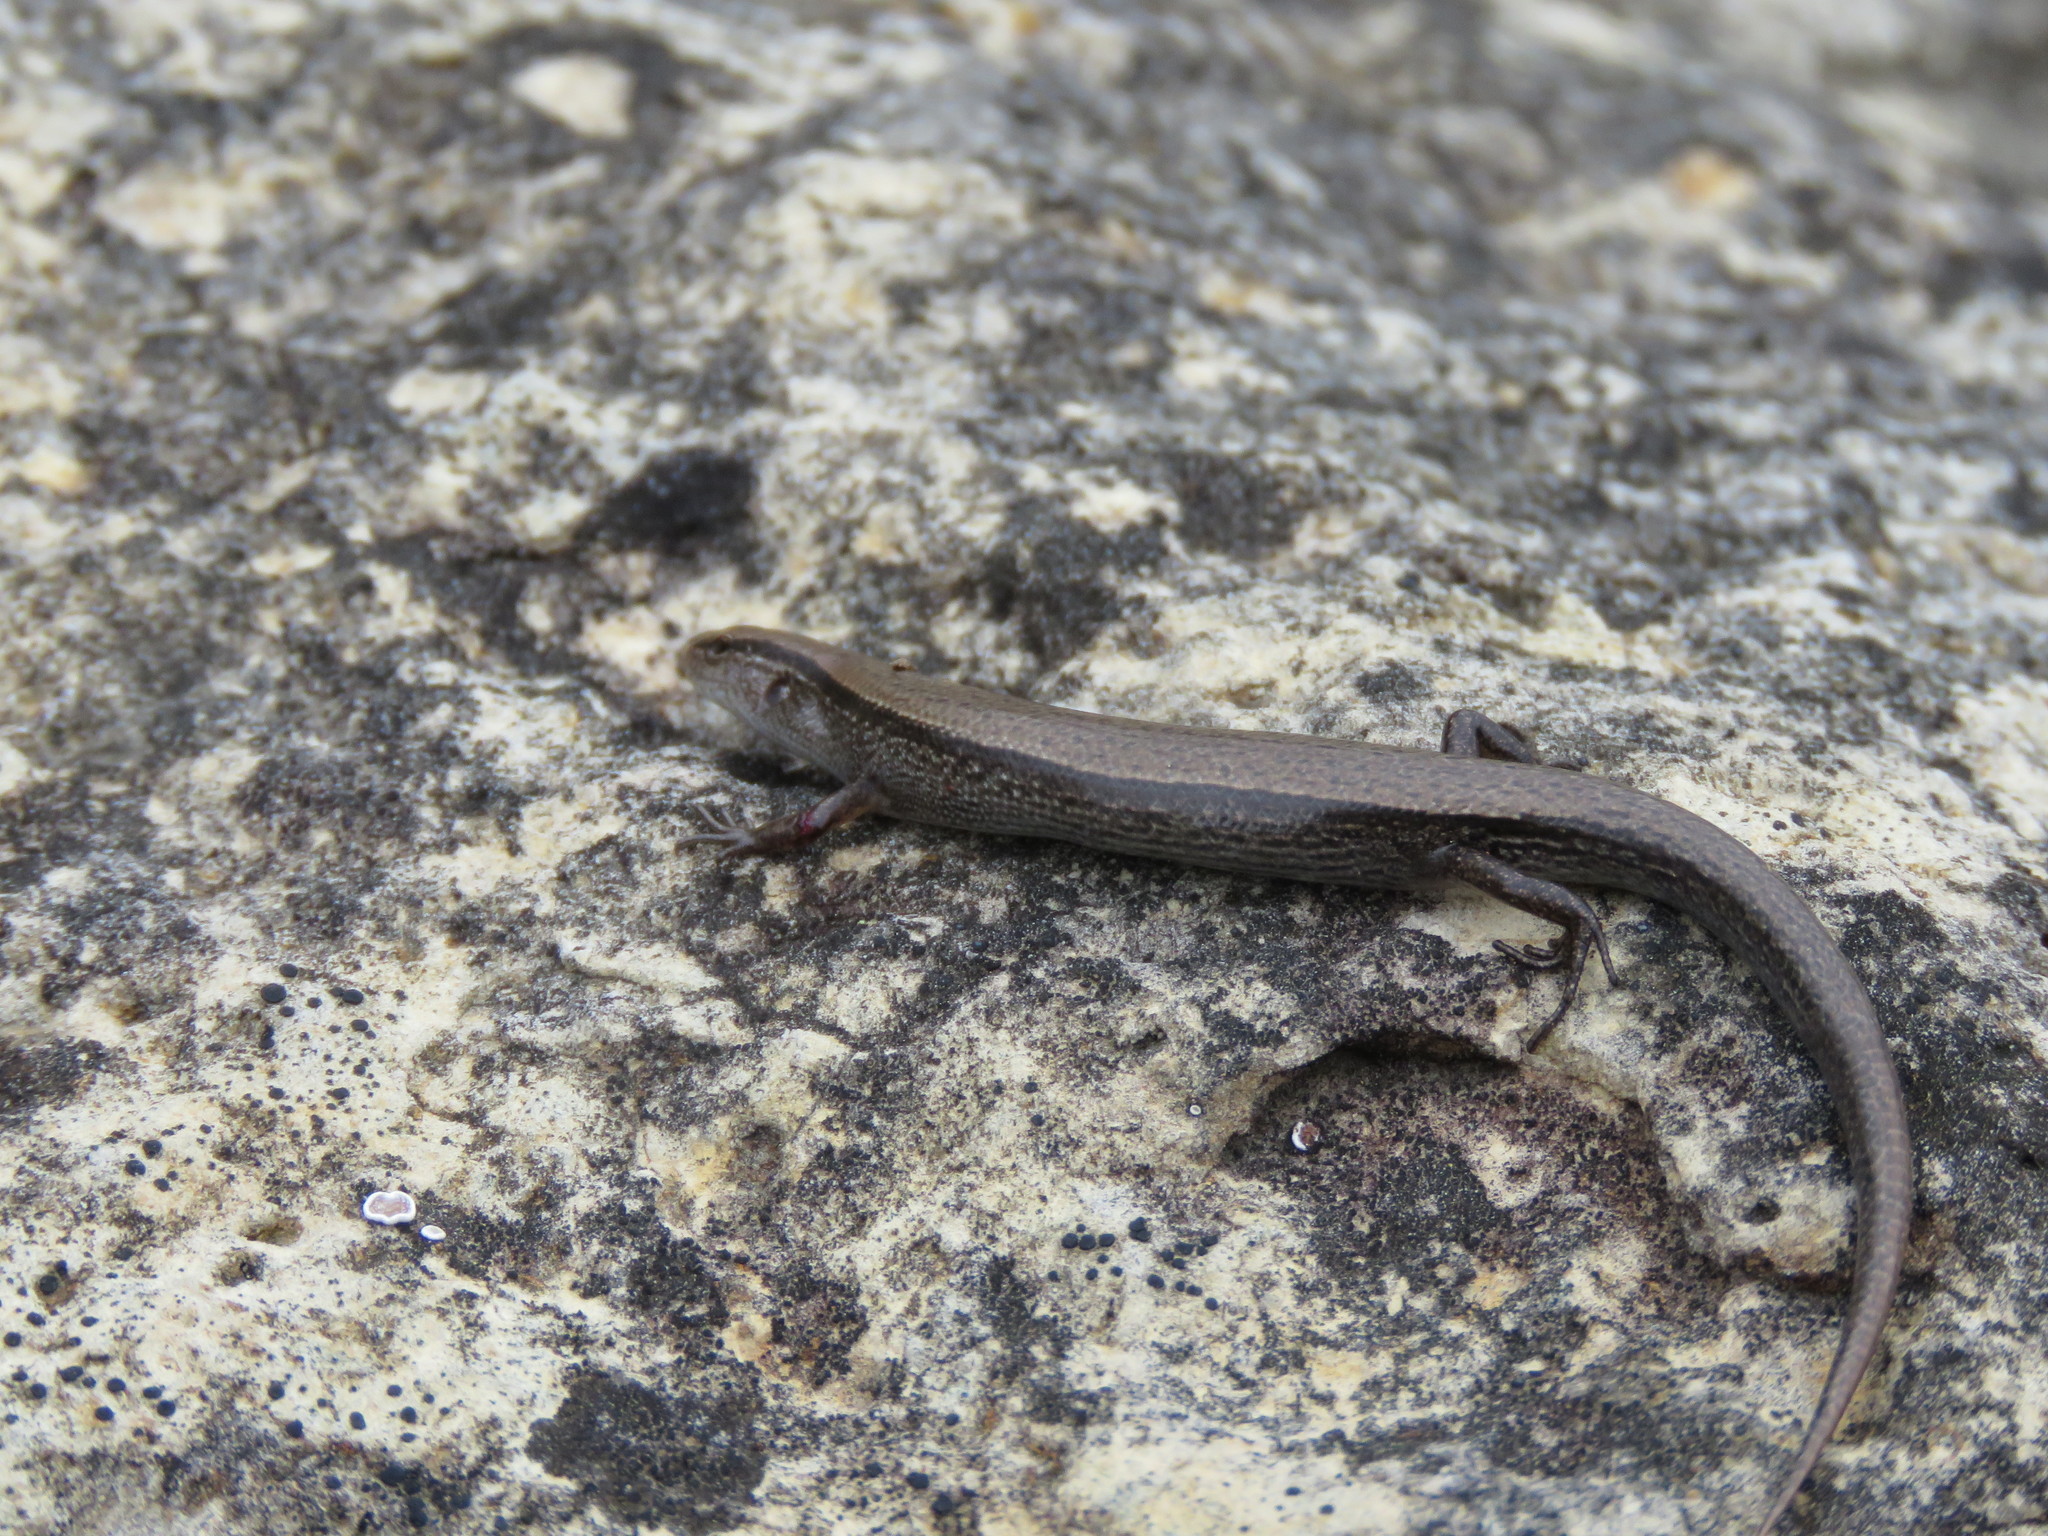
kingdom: Animalia
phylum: Chordata
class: Squamata
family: Scincidae
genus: Scincella
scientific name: Scincella lateralis
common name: Ground skink
